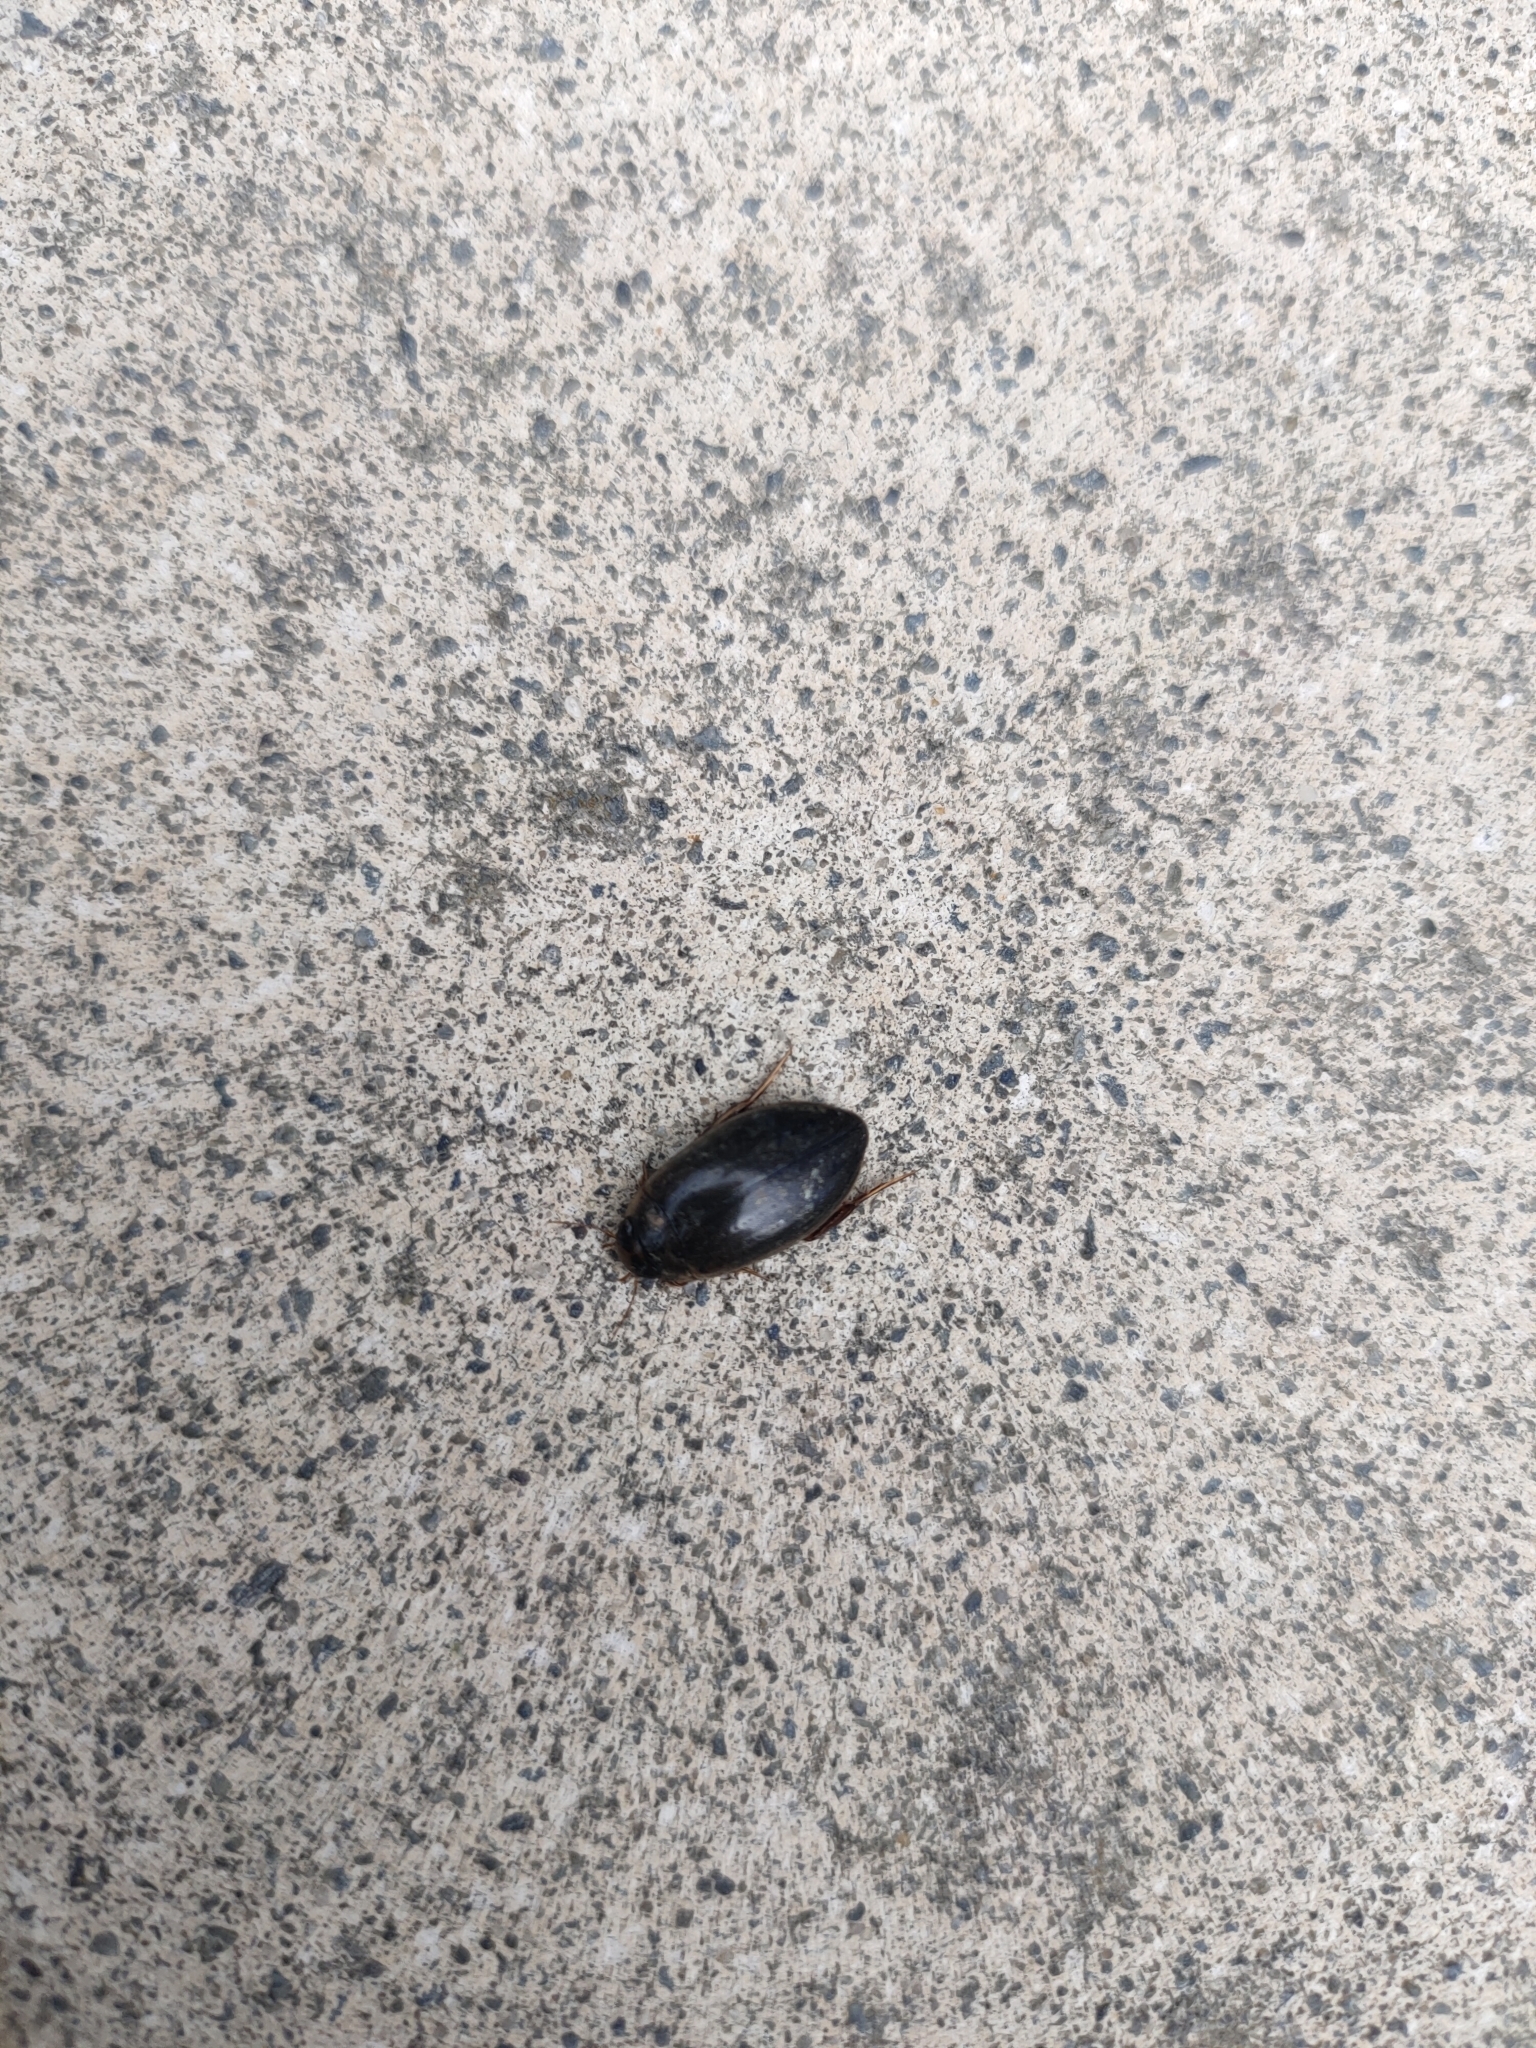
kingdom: Animalia
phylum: Arthropoda
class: Insecta
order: Coleoptera
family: Dytiscidae
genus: Rhantus
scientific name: Rhantus suturalis
